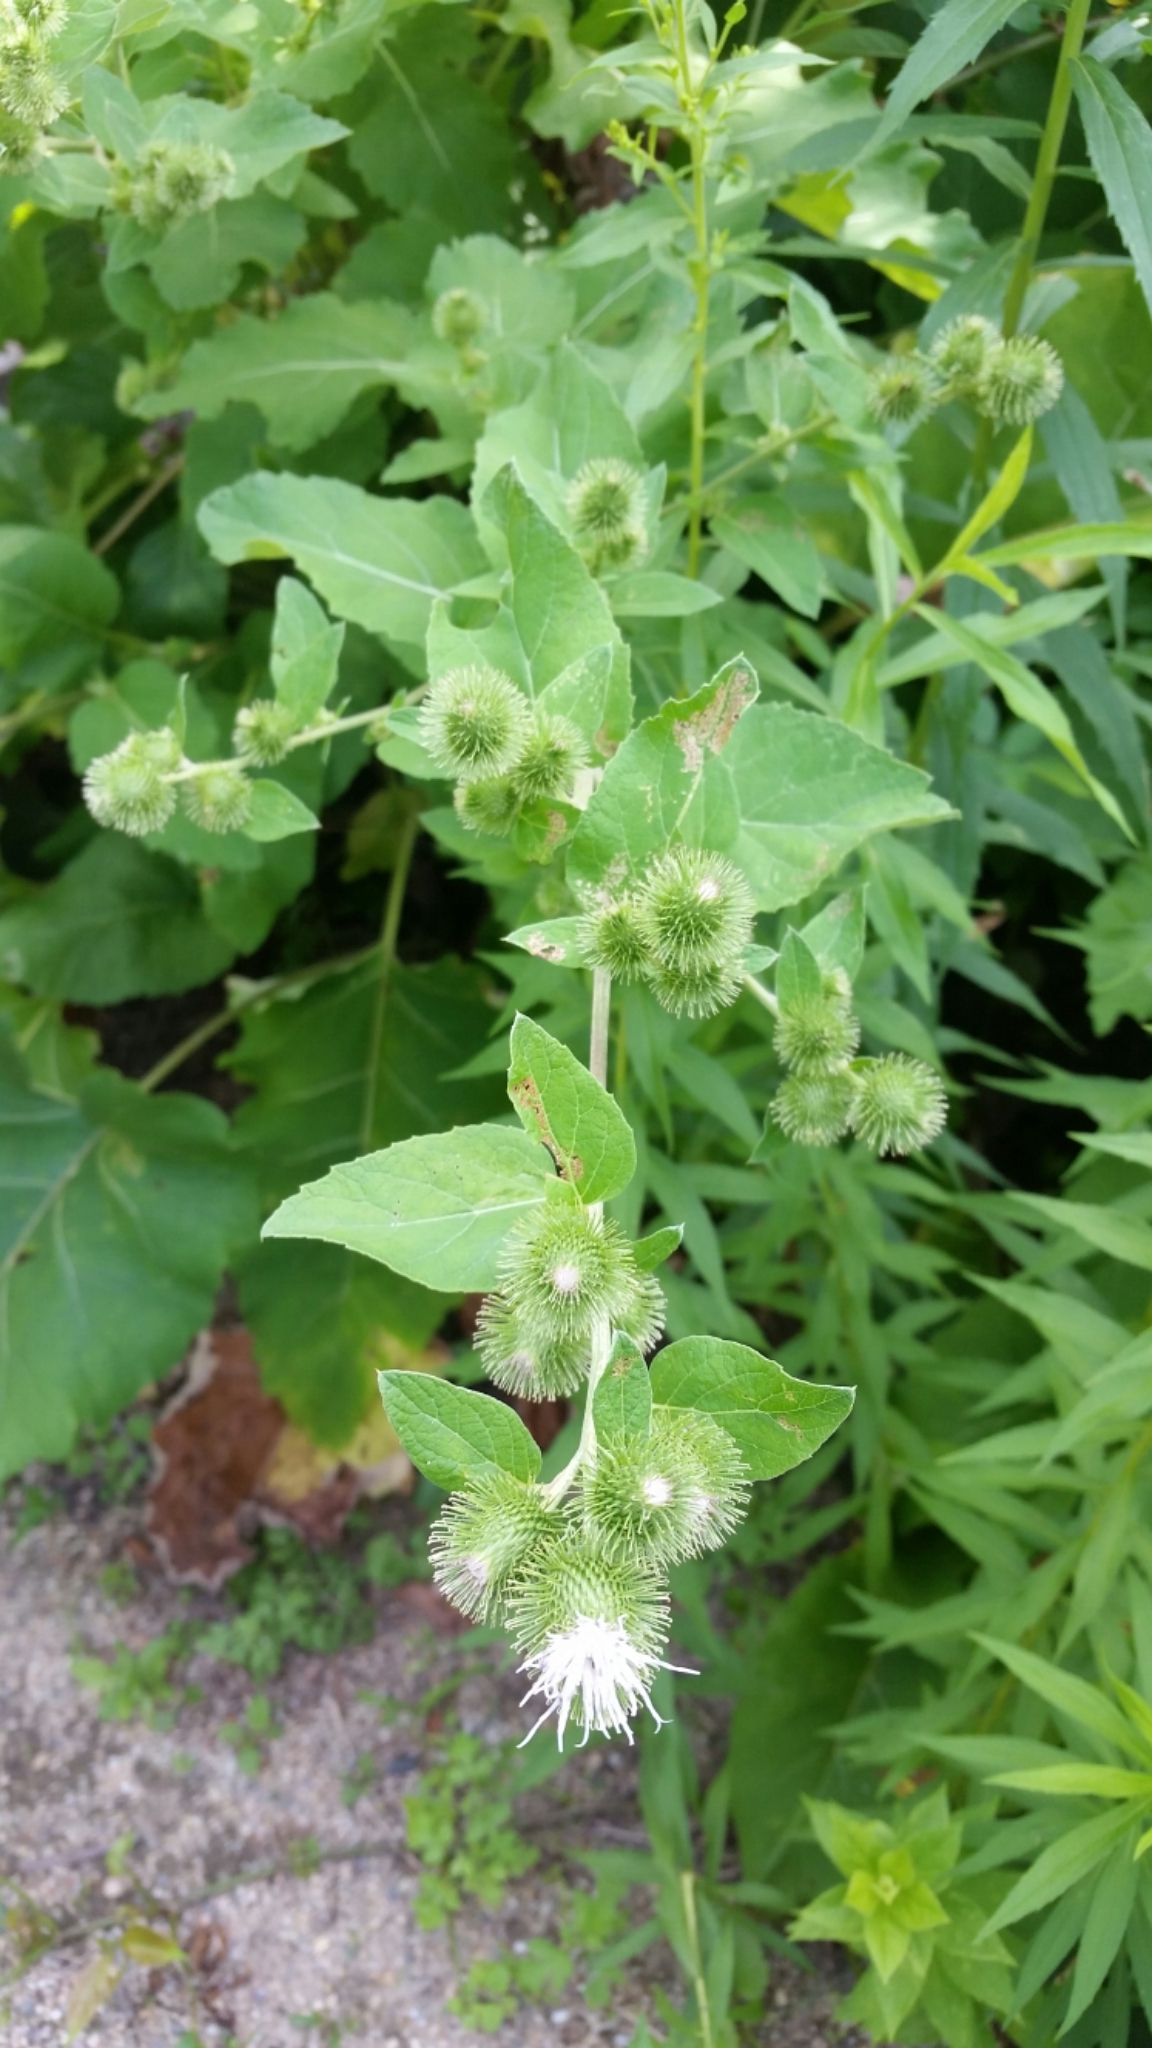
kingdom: Plantae
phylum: Tracheophyta
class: Magnoliopsida
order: Asterales
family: Asteraceae
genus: Arctium
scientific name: Arctium minus
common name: Lesser burdock
